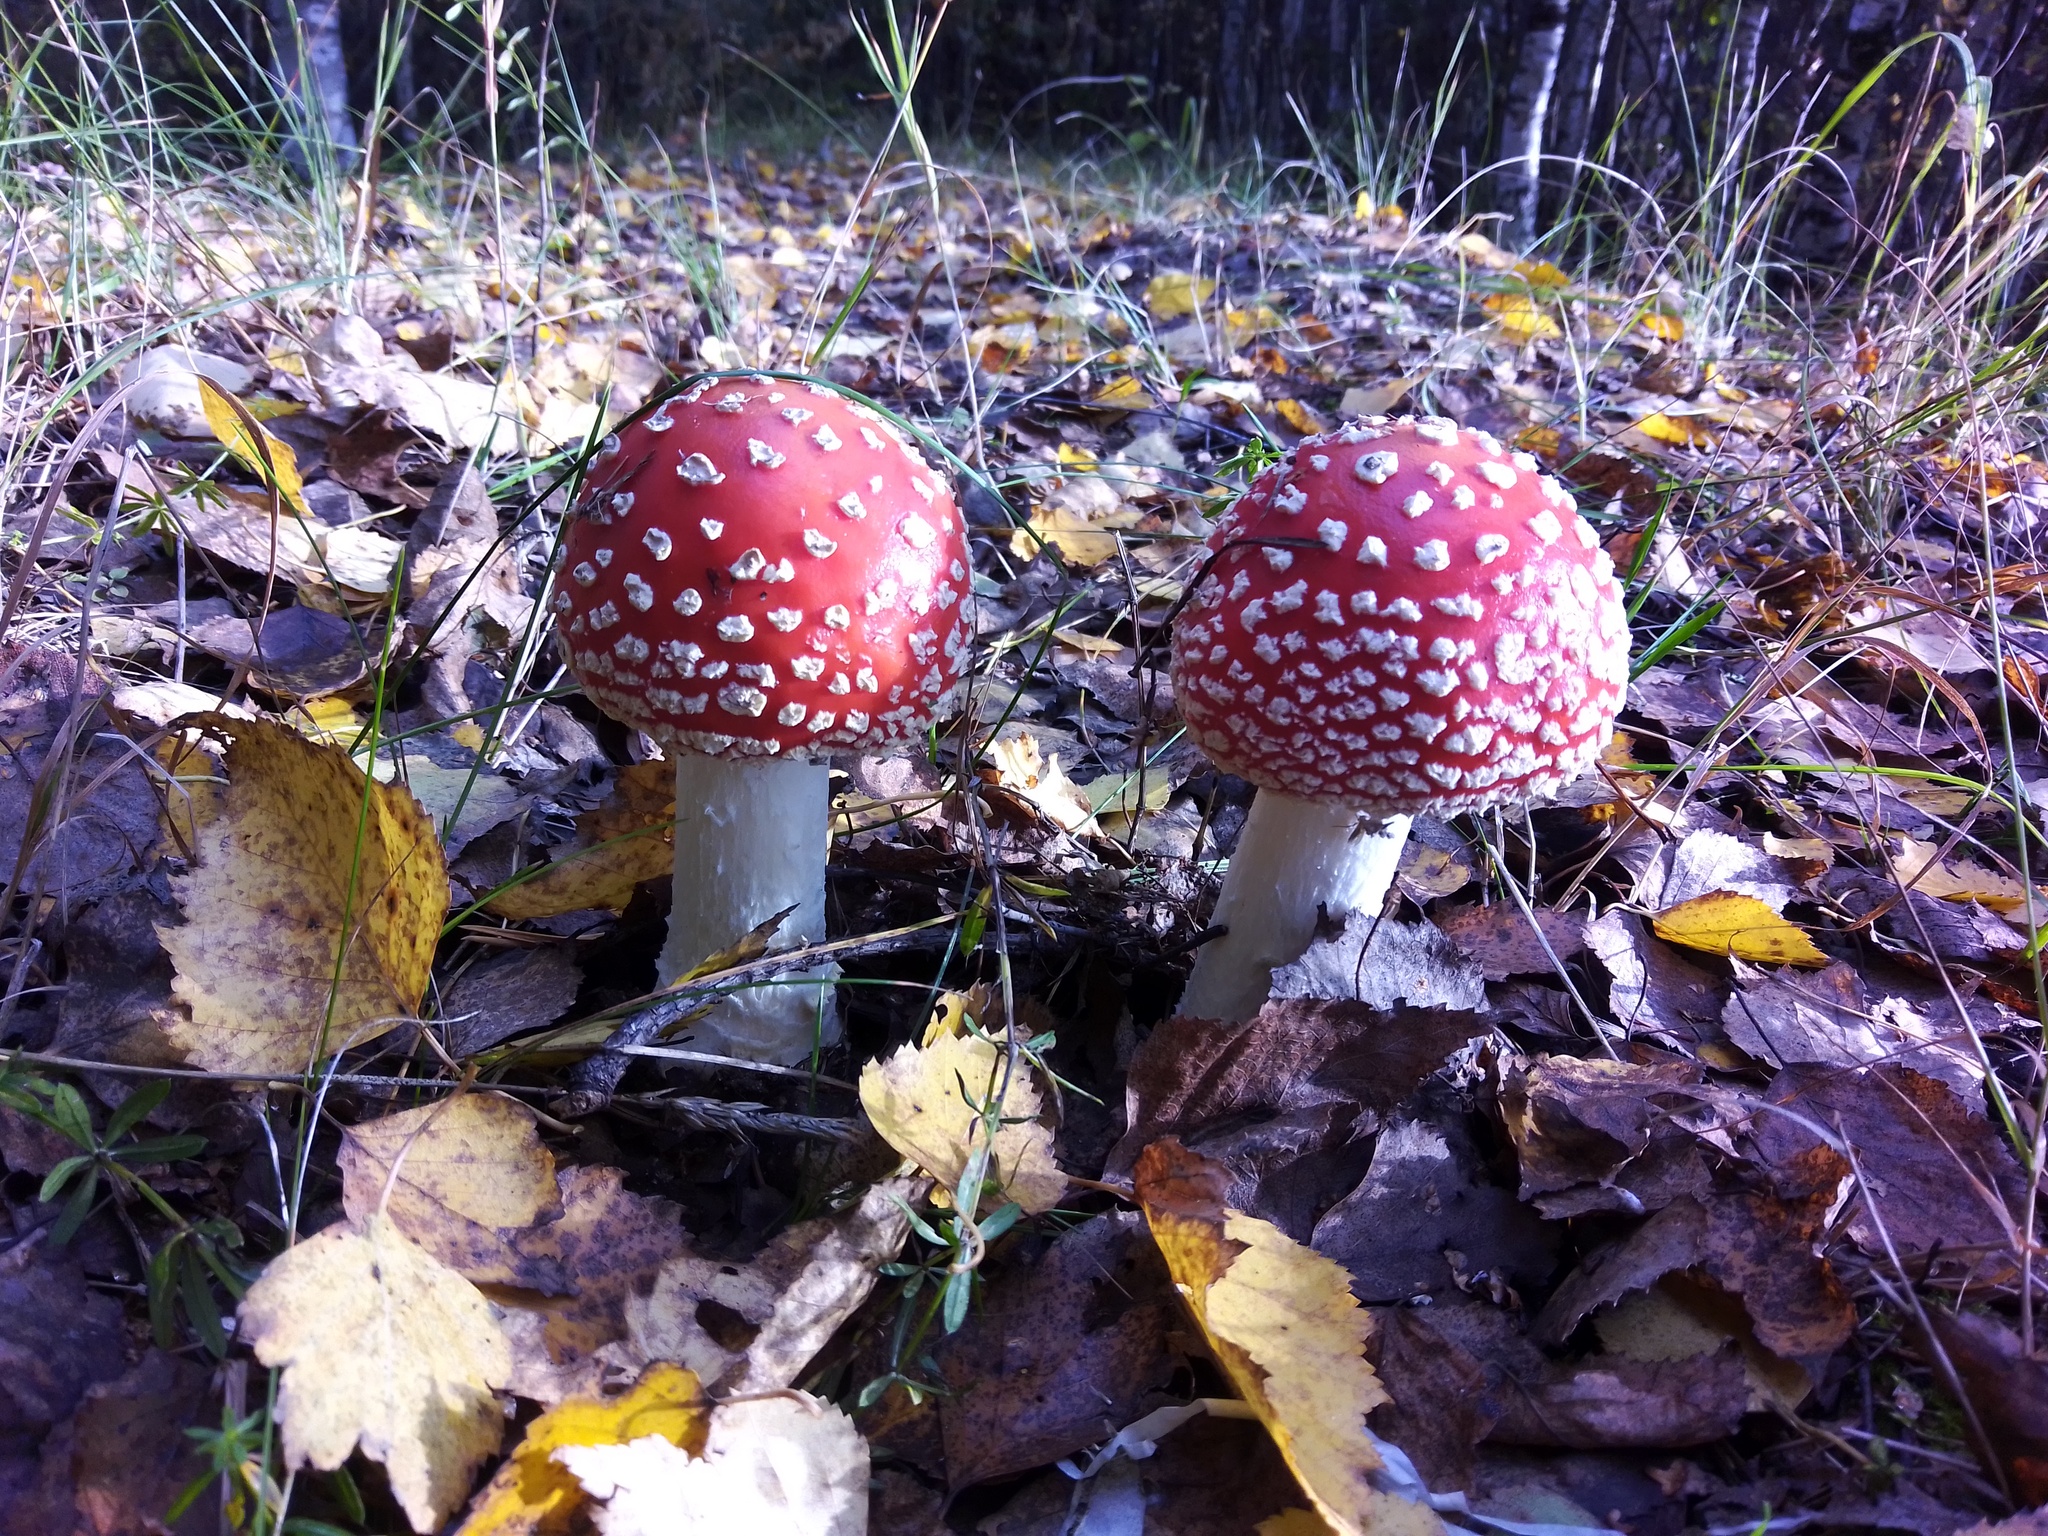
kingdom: Fungi
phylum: Basidiomycota
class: Agaricomycetes
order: Agaricales
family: Amanitaceae
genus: Amanita
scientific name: Amanita muscaria
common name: Fly agaric
